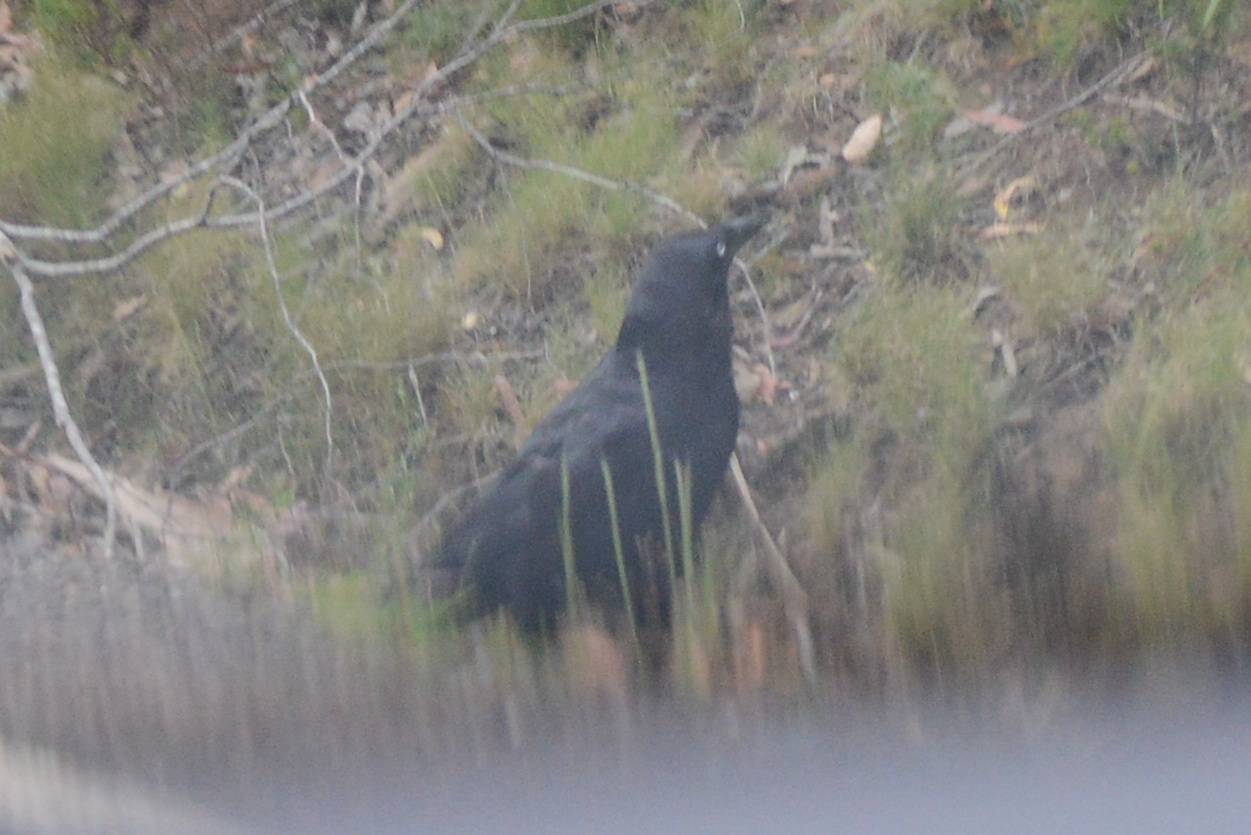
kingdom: Animalia
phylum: Chordata
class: Aves
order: Passeriformes
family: Corvidae
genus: Corvus
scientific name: Corvus tasmanicus
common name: Forest raven
